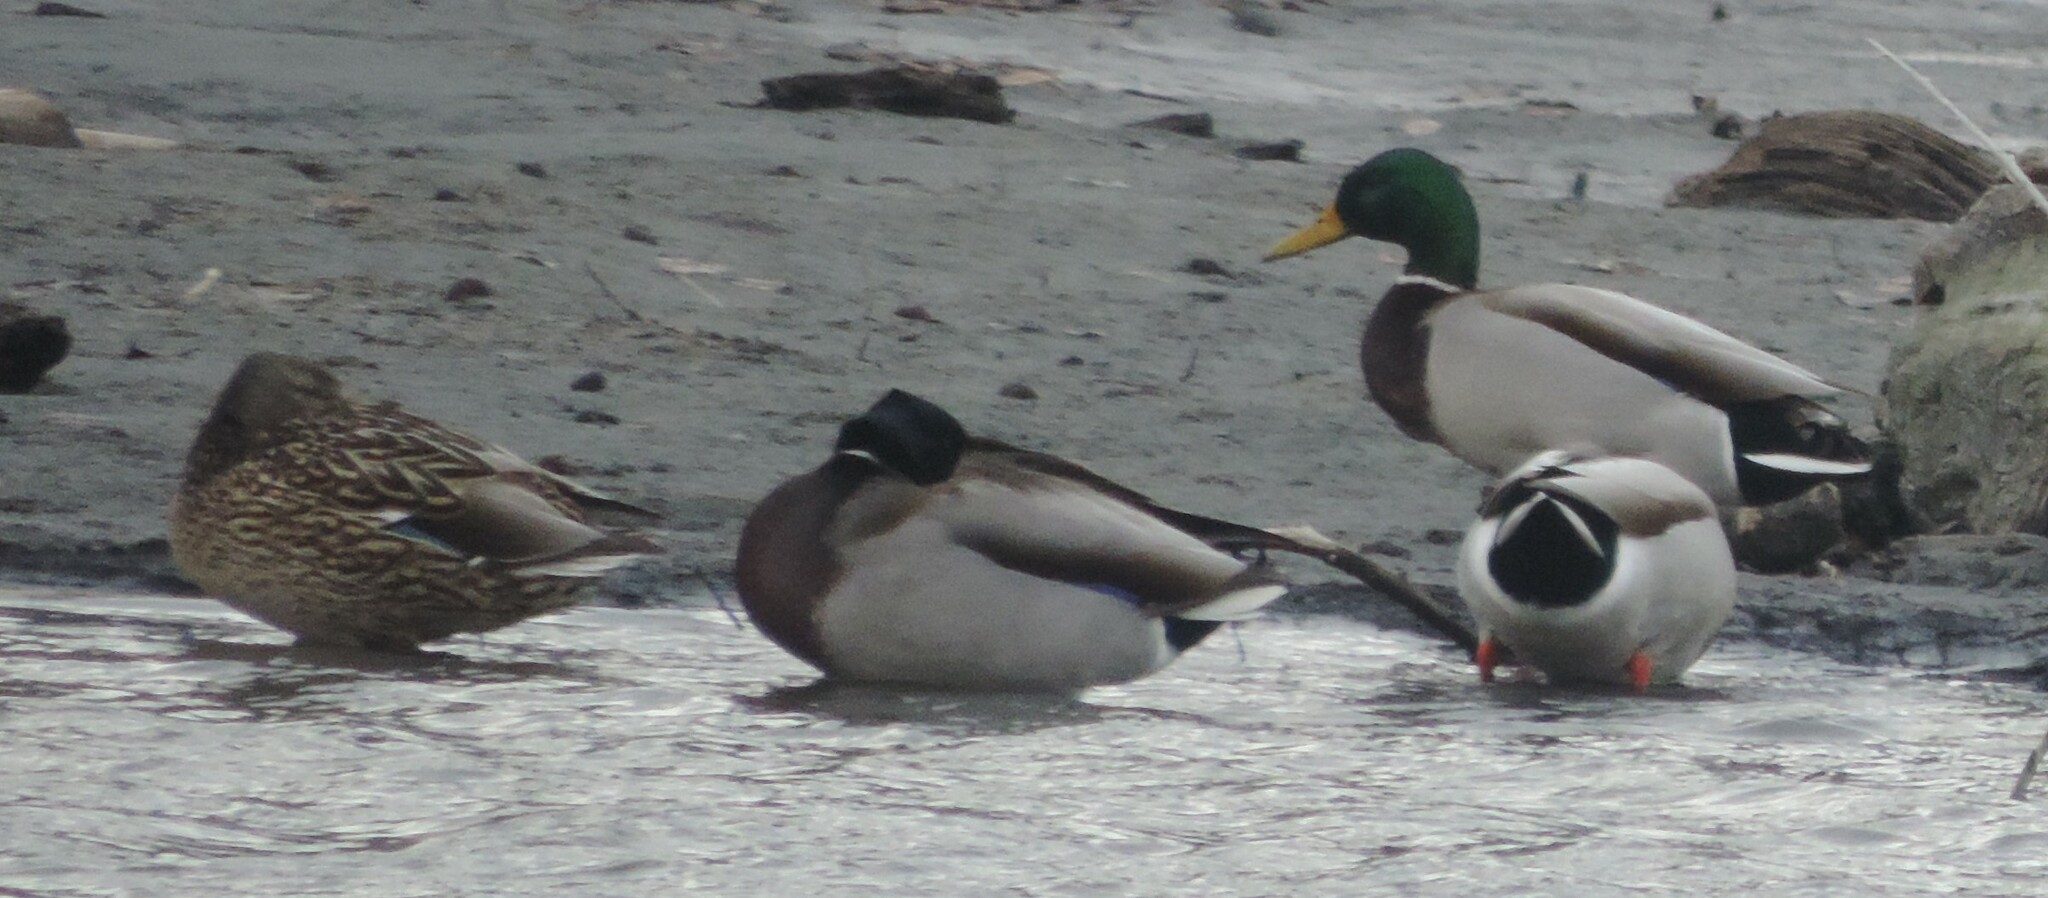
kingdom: Animalia
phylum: Chordata
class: Aves
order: Anseriformes
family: Anatidae
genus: Anas
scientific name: Anas platyrhynchos
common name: Mallard
